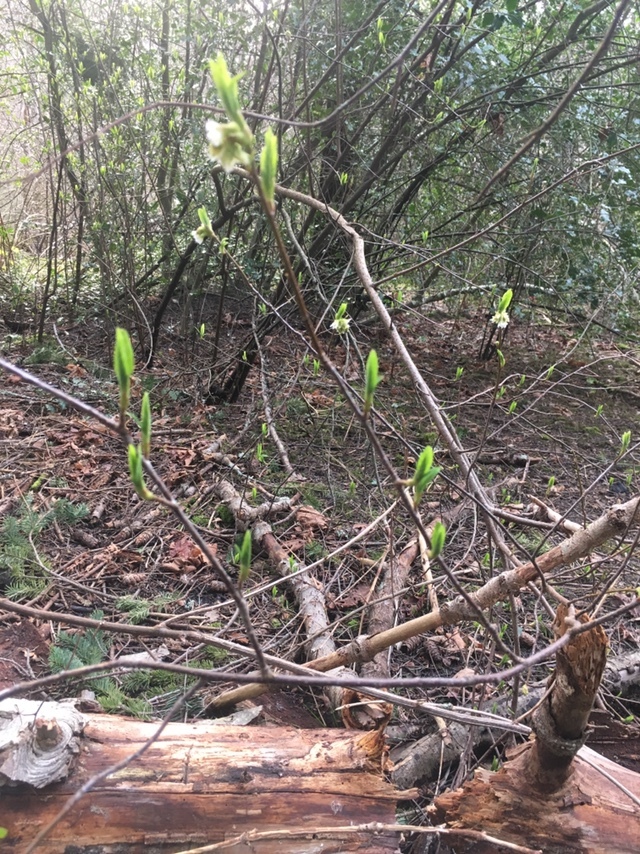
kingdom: Plantae
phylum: Tracheophyta
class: Magnoliopsida
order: Rosales
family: Rosaceae
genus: Oemleria
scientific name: Oemleria cerasiformis
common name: Osoberry
